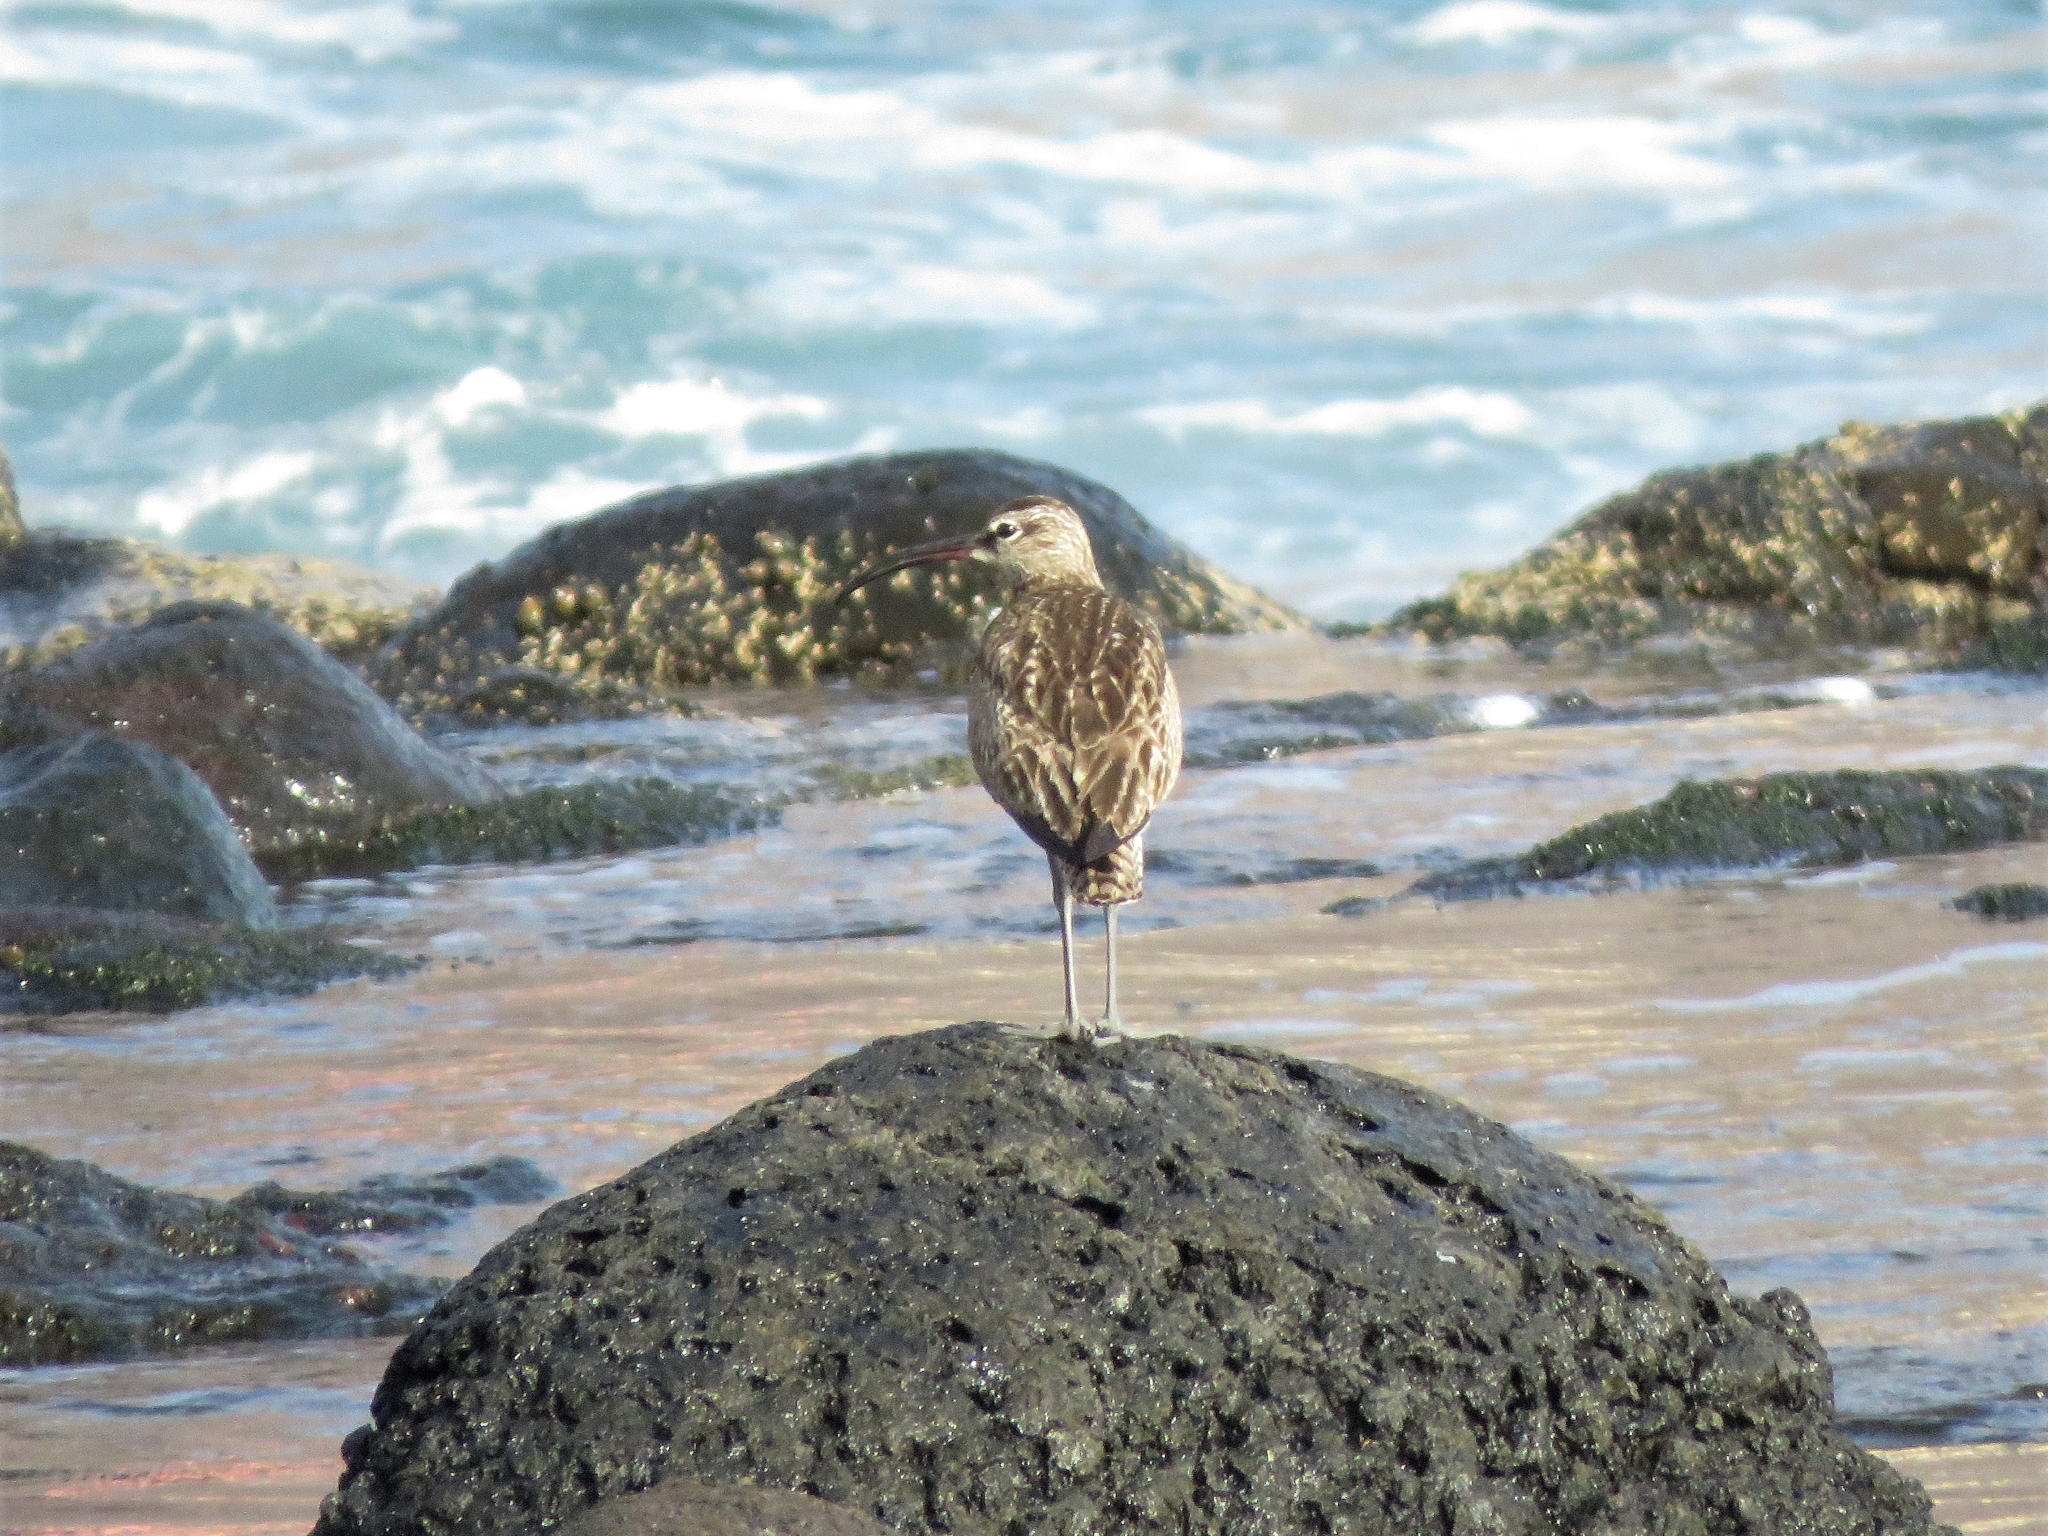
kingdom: Animalia
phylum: Chordata
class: Aves
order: Charadriiformes
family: Scolopacidae
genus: Numenius
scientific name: Numenius phaeopus
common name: Whimbrel
